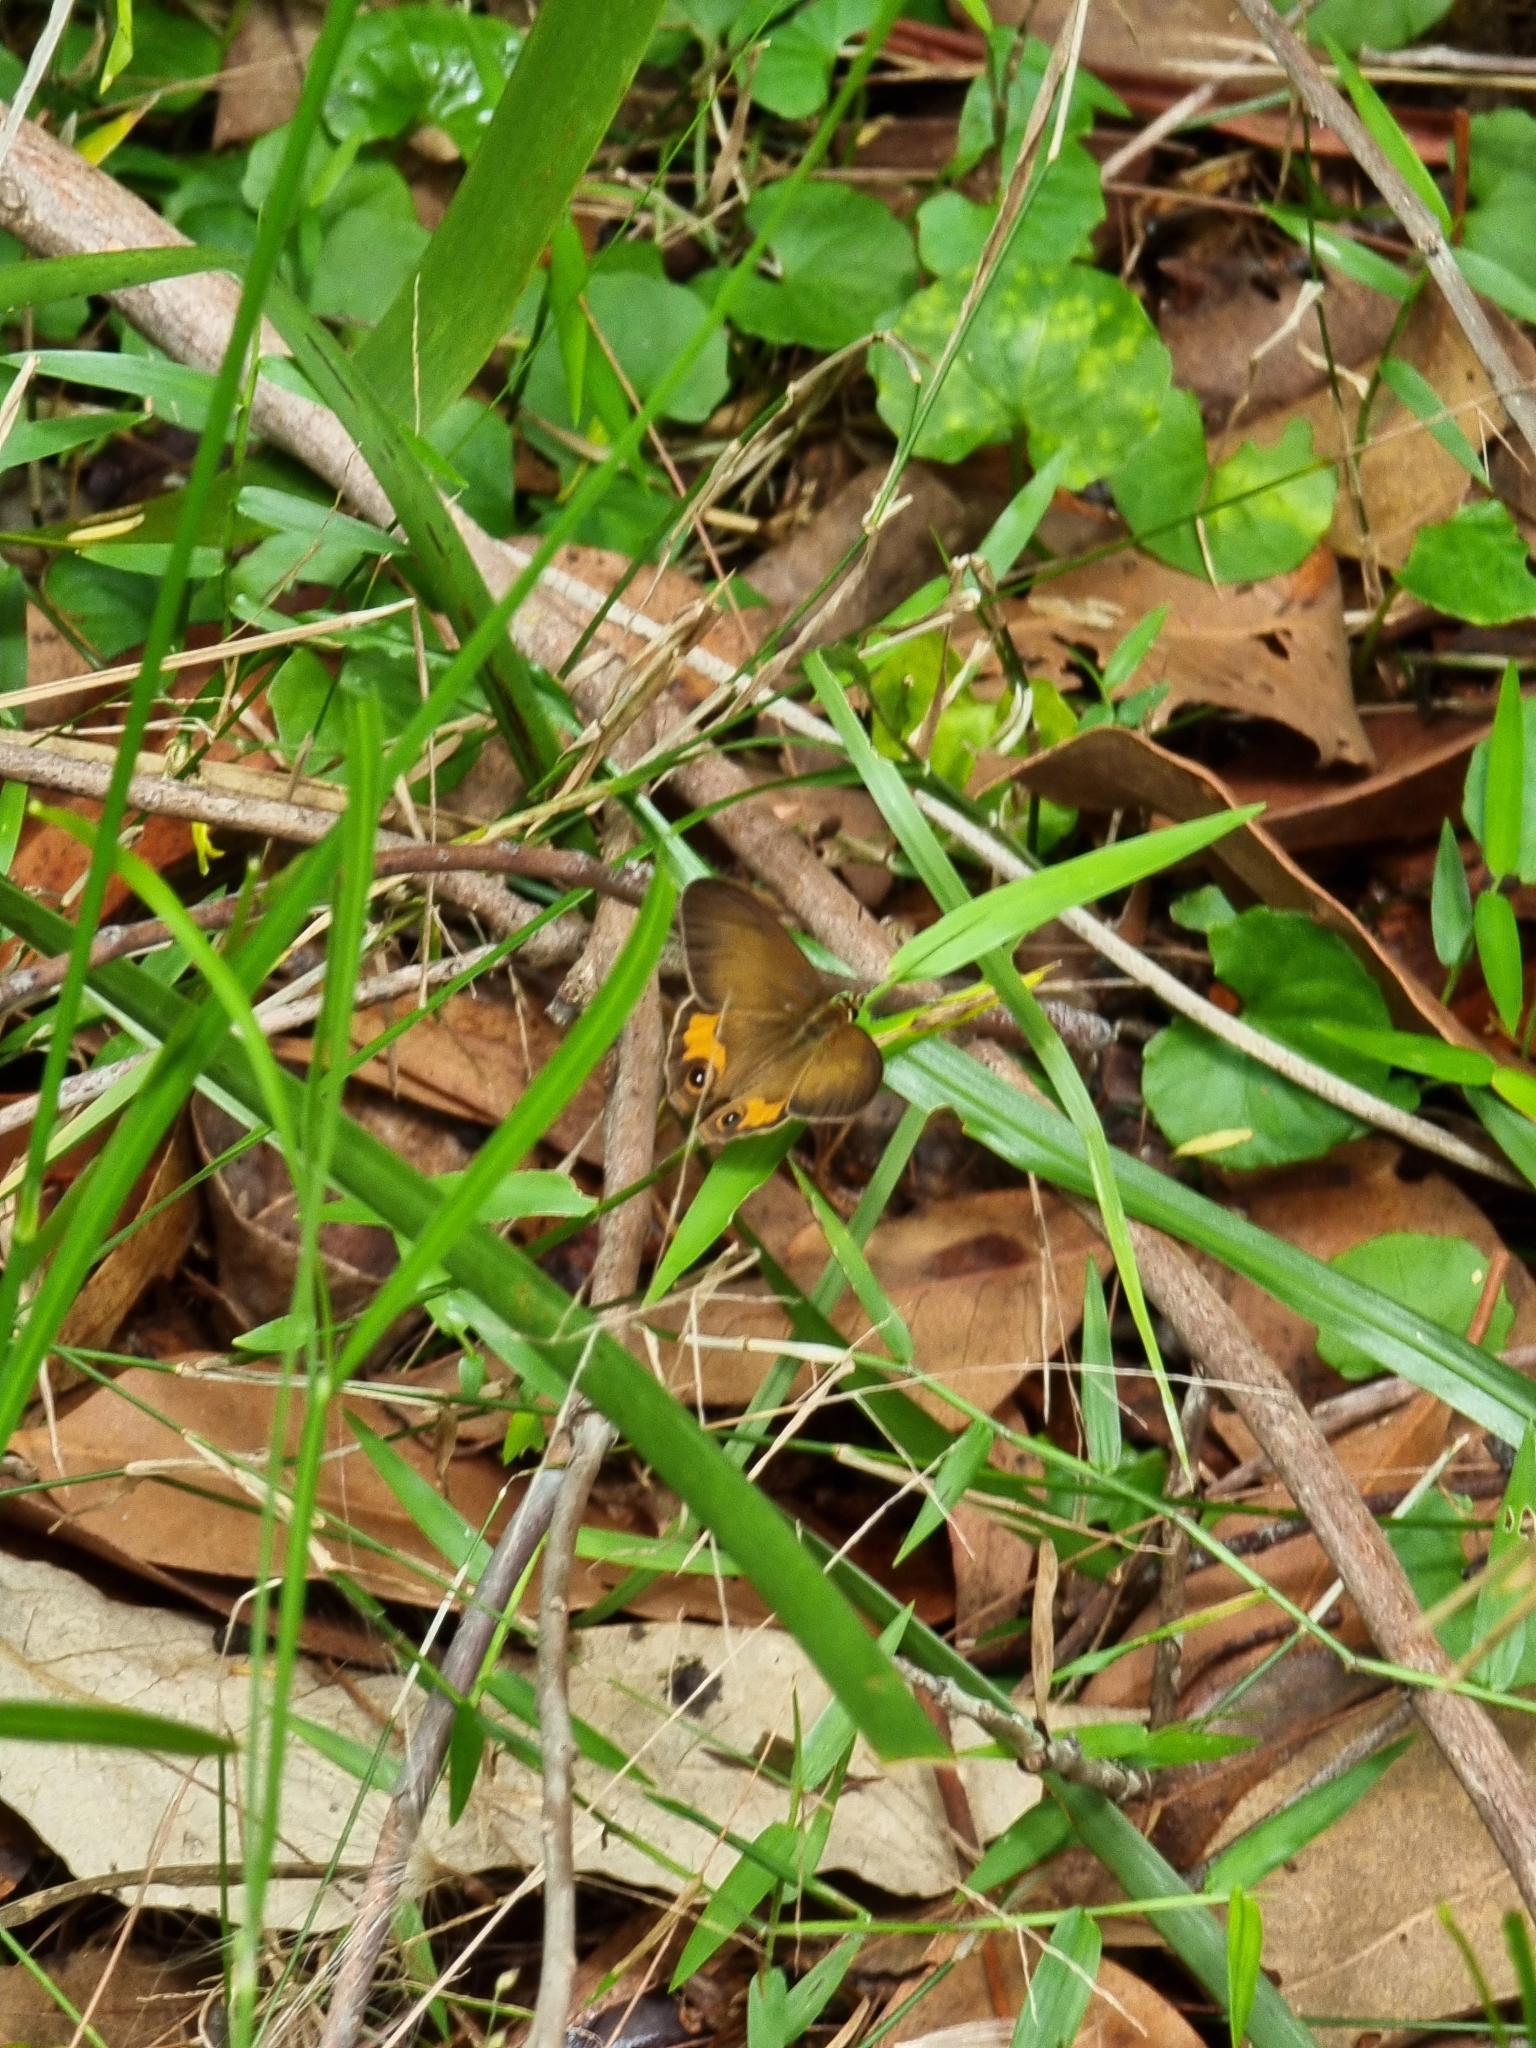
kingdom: Animalia
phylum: Arthropoda
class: Insecta
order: Lepidoptera
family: Nymphalidae
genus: Hypocysta
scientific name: Hypocysta metirius
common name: Brown ringlet
